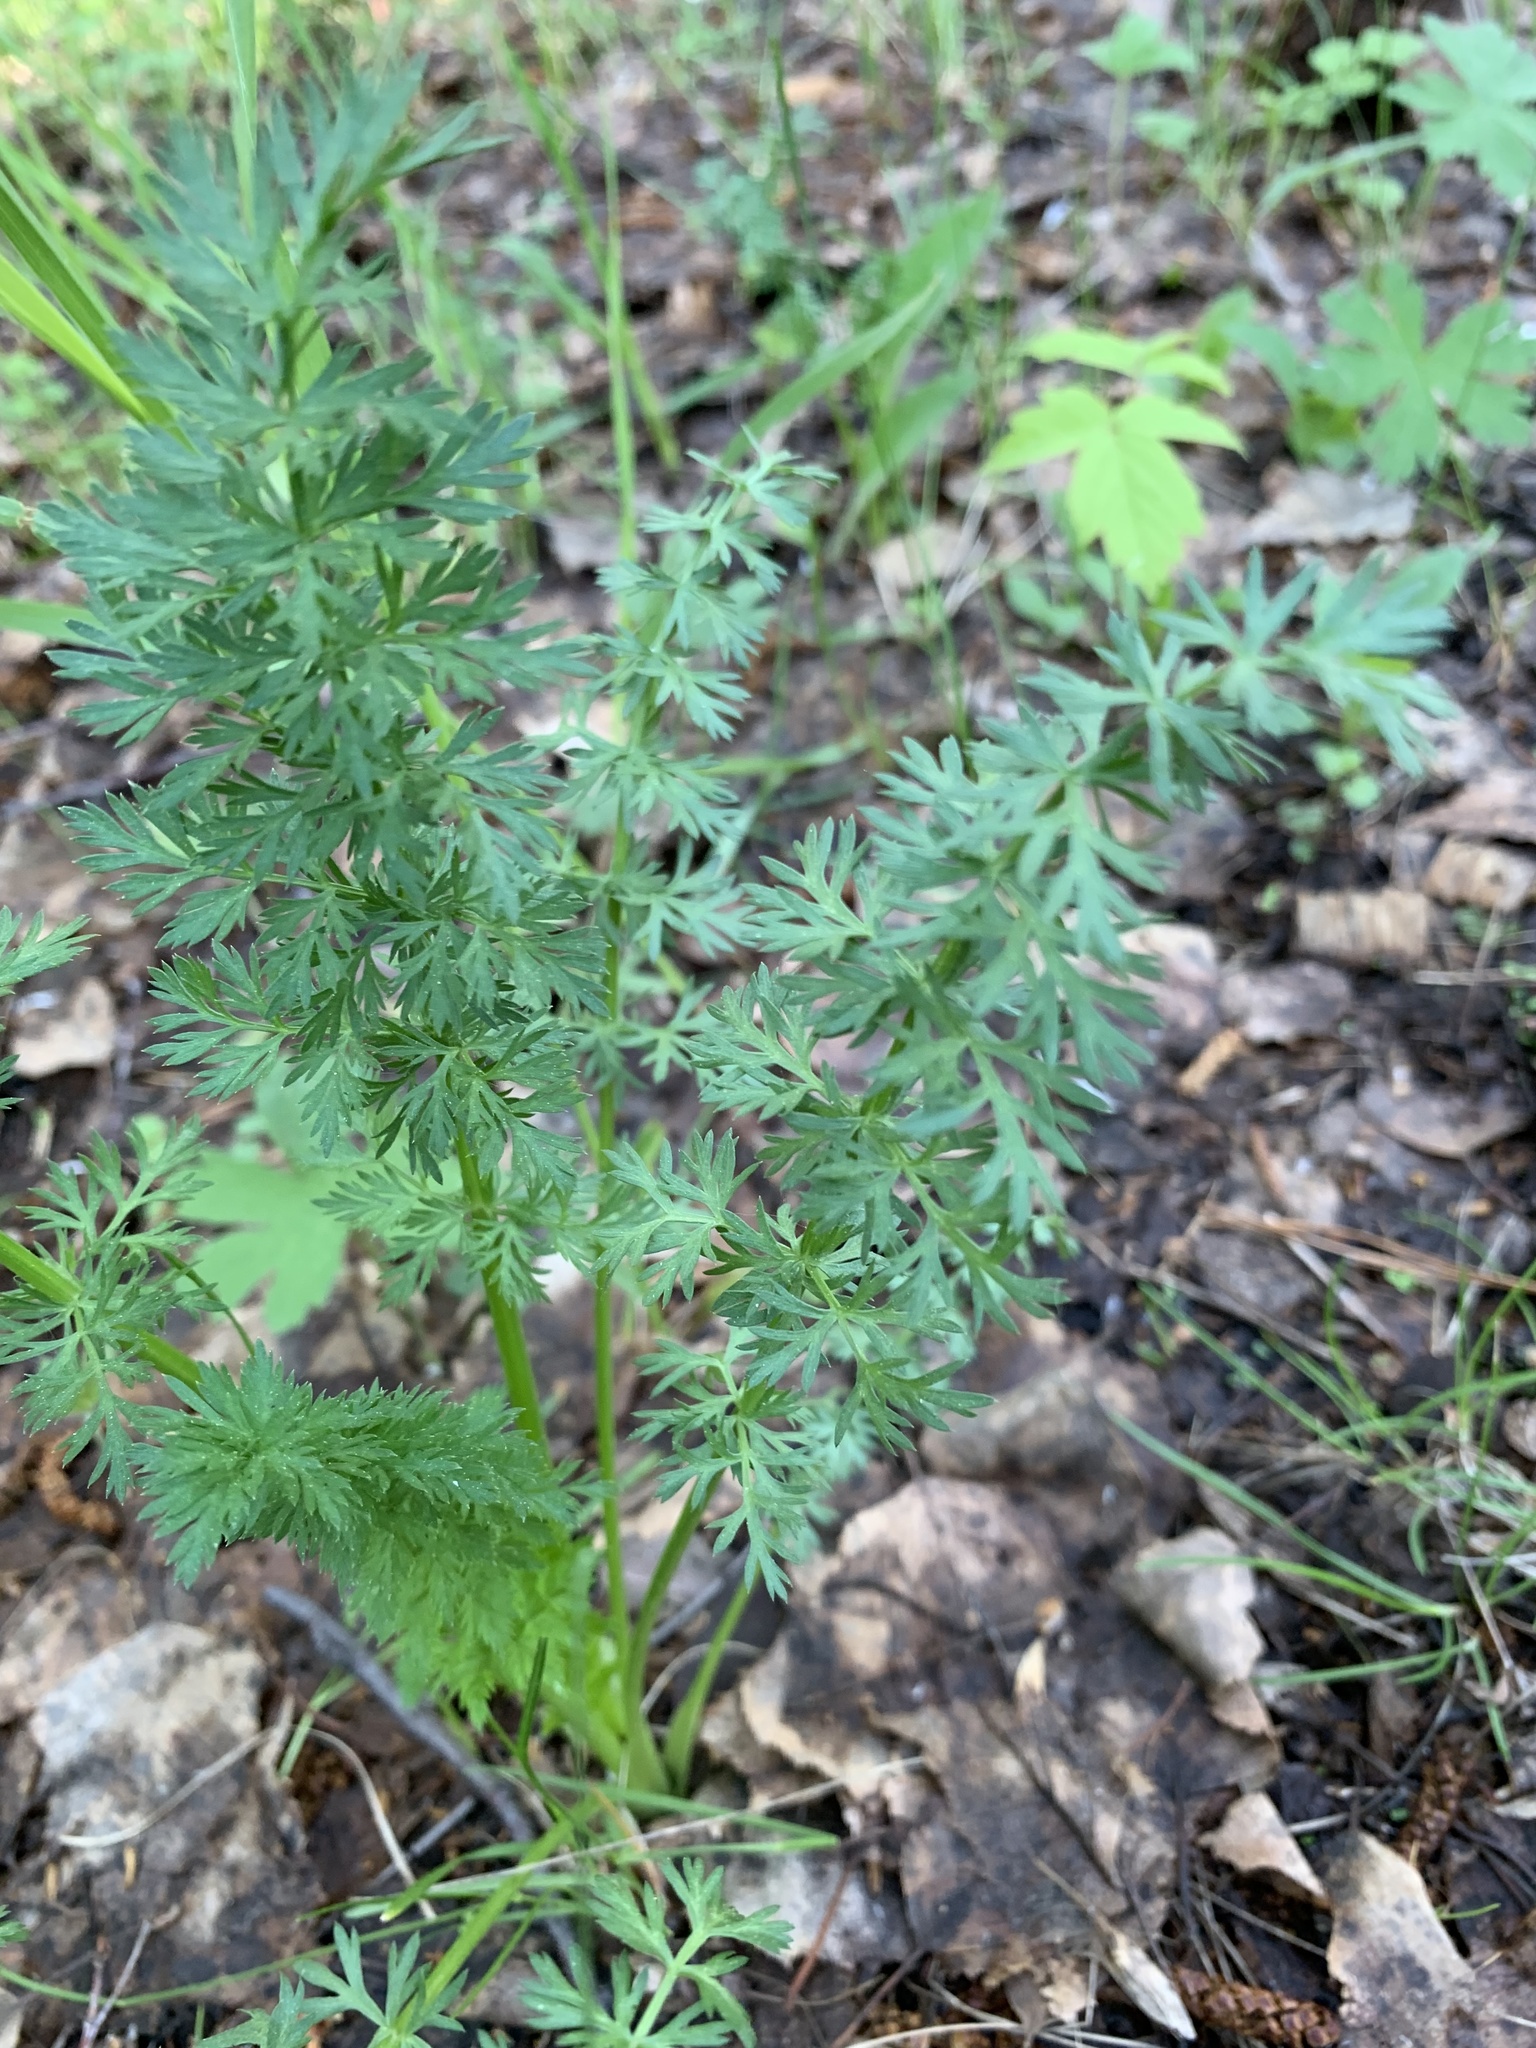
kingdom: Plantae
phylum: Tracheophyta
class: Magnoliopsida
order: Apiales
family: Apiaceae
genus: Carum
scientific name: Carum carvi
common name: Caraway
